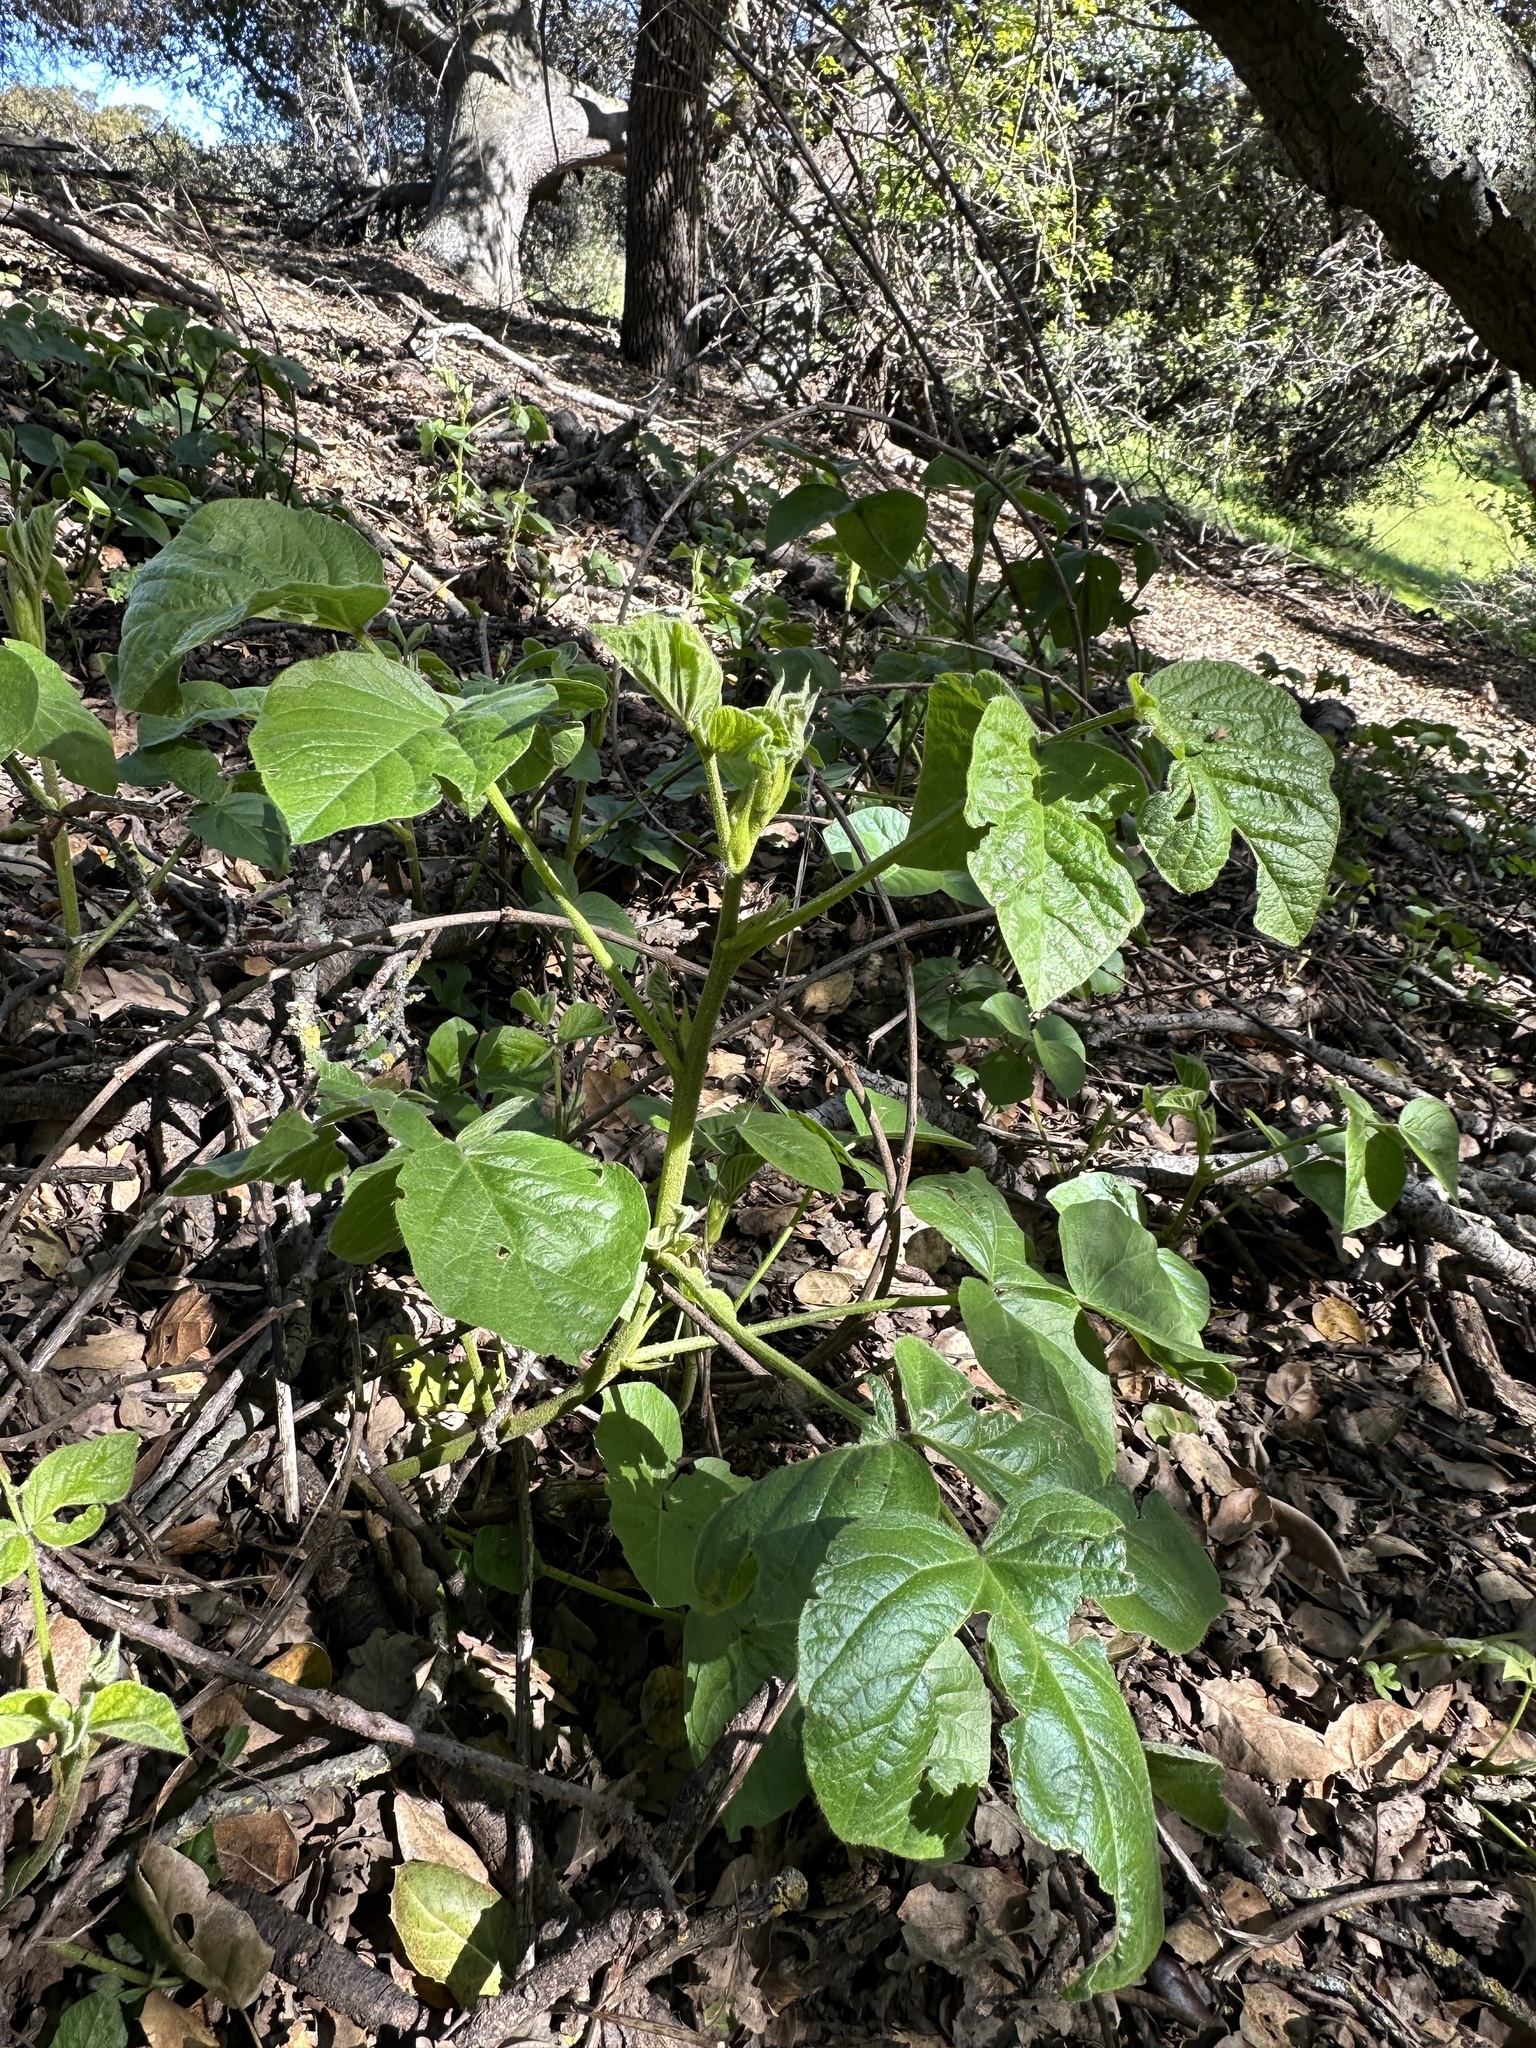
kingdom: Plantae
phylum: Tracheophyta
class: Magnoliopsida
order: Fabales
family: Fabaceae
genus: Hoita
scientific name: Hoita strobilina
